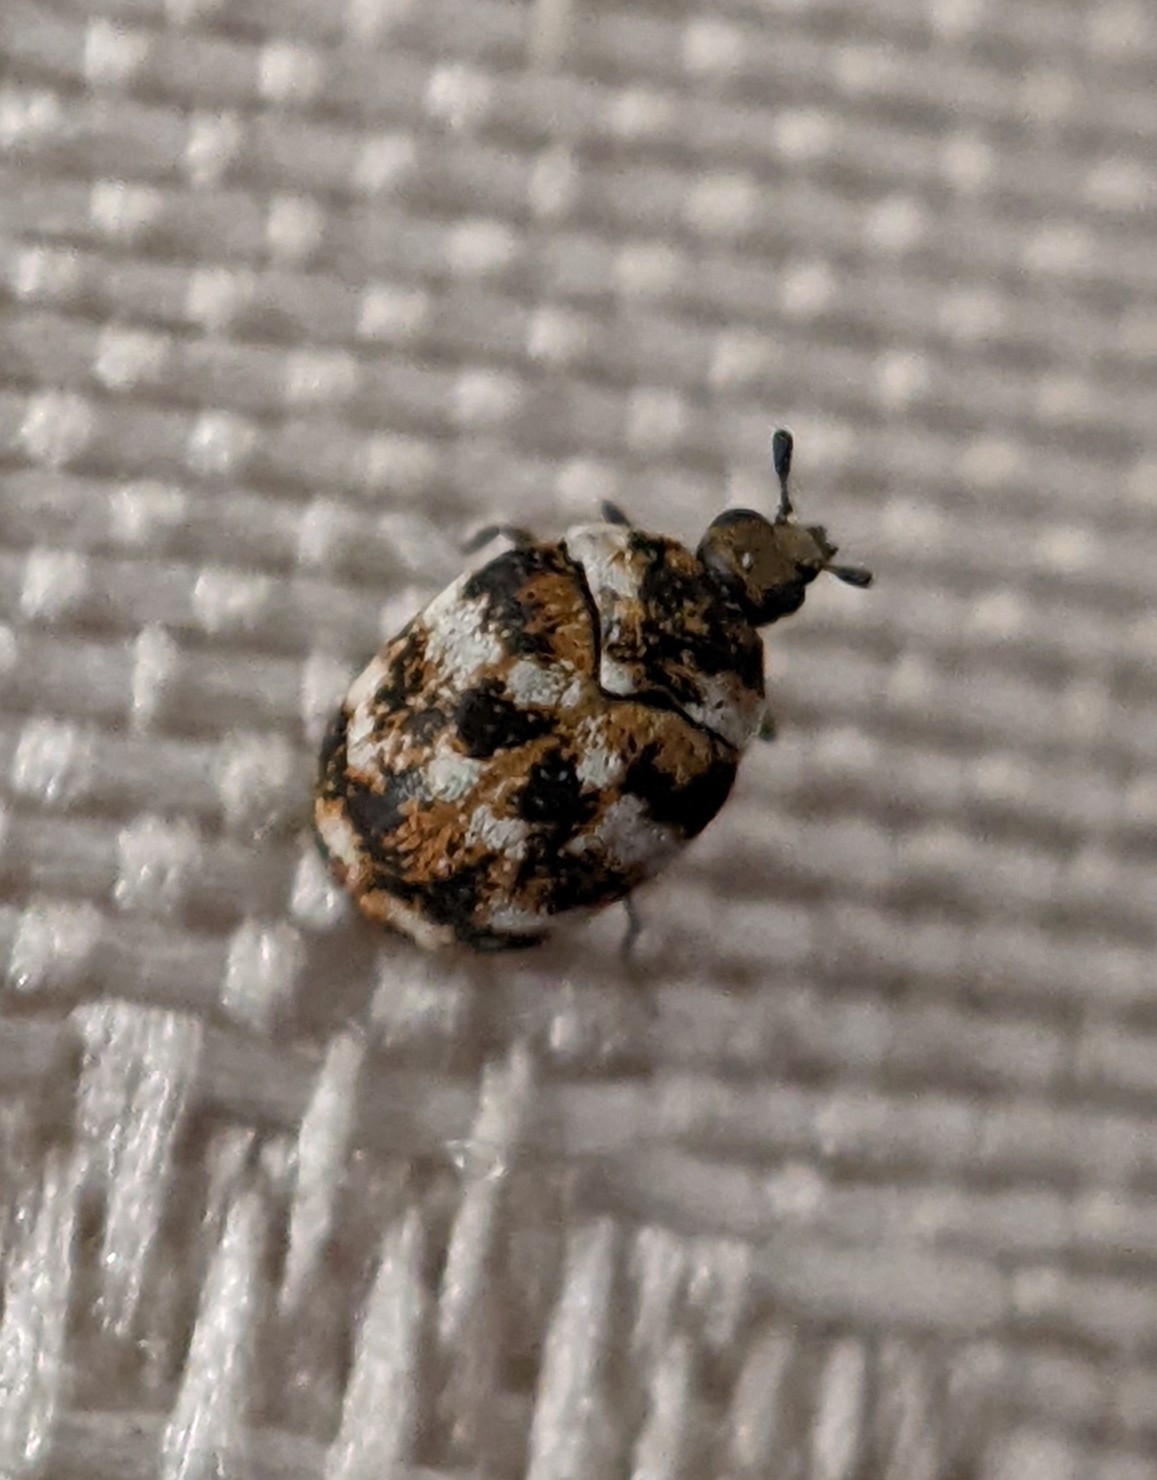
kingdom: Animalia
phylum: Arthropoda
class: Insecta
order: Coleoptera
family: Dermestidae
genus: Anthrenus
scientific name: Anthrenus verbasci
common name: Varied carpet beetle
